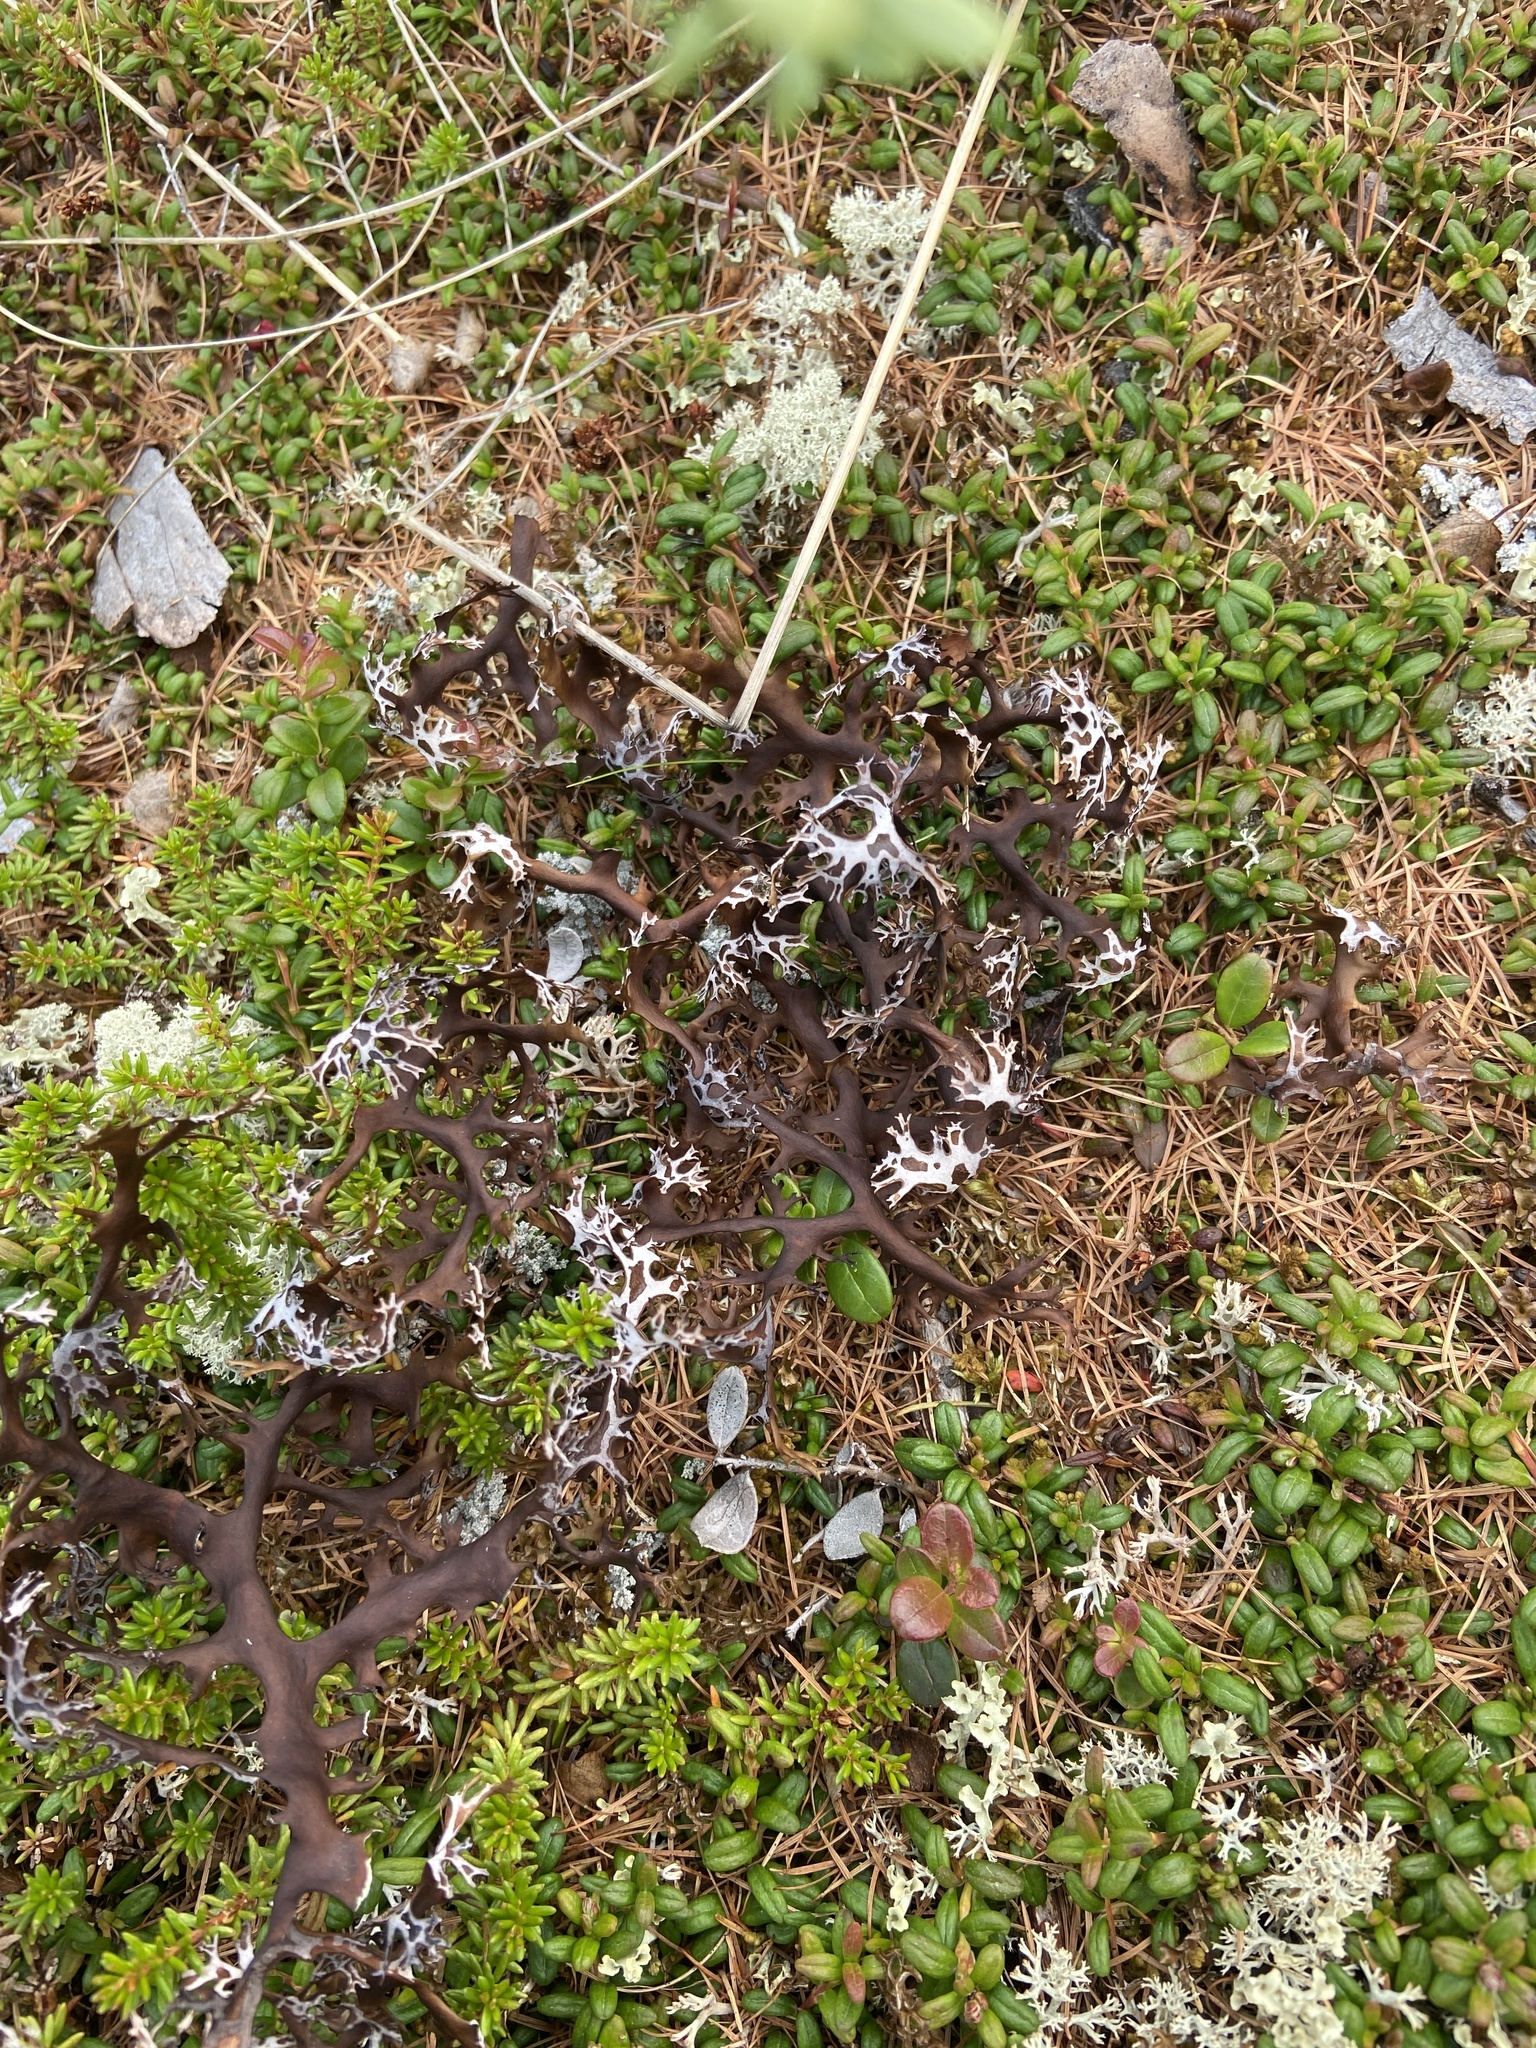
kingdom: Fungi
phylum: Ascomycota
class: Lecanoromycetes
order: Lecanorales
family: Parmeliaceae
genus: Nephromopsis
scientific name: Nephromopsis richardsonii
